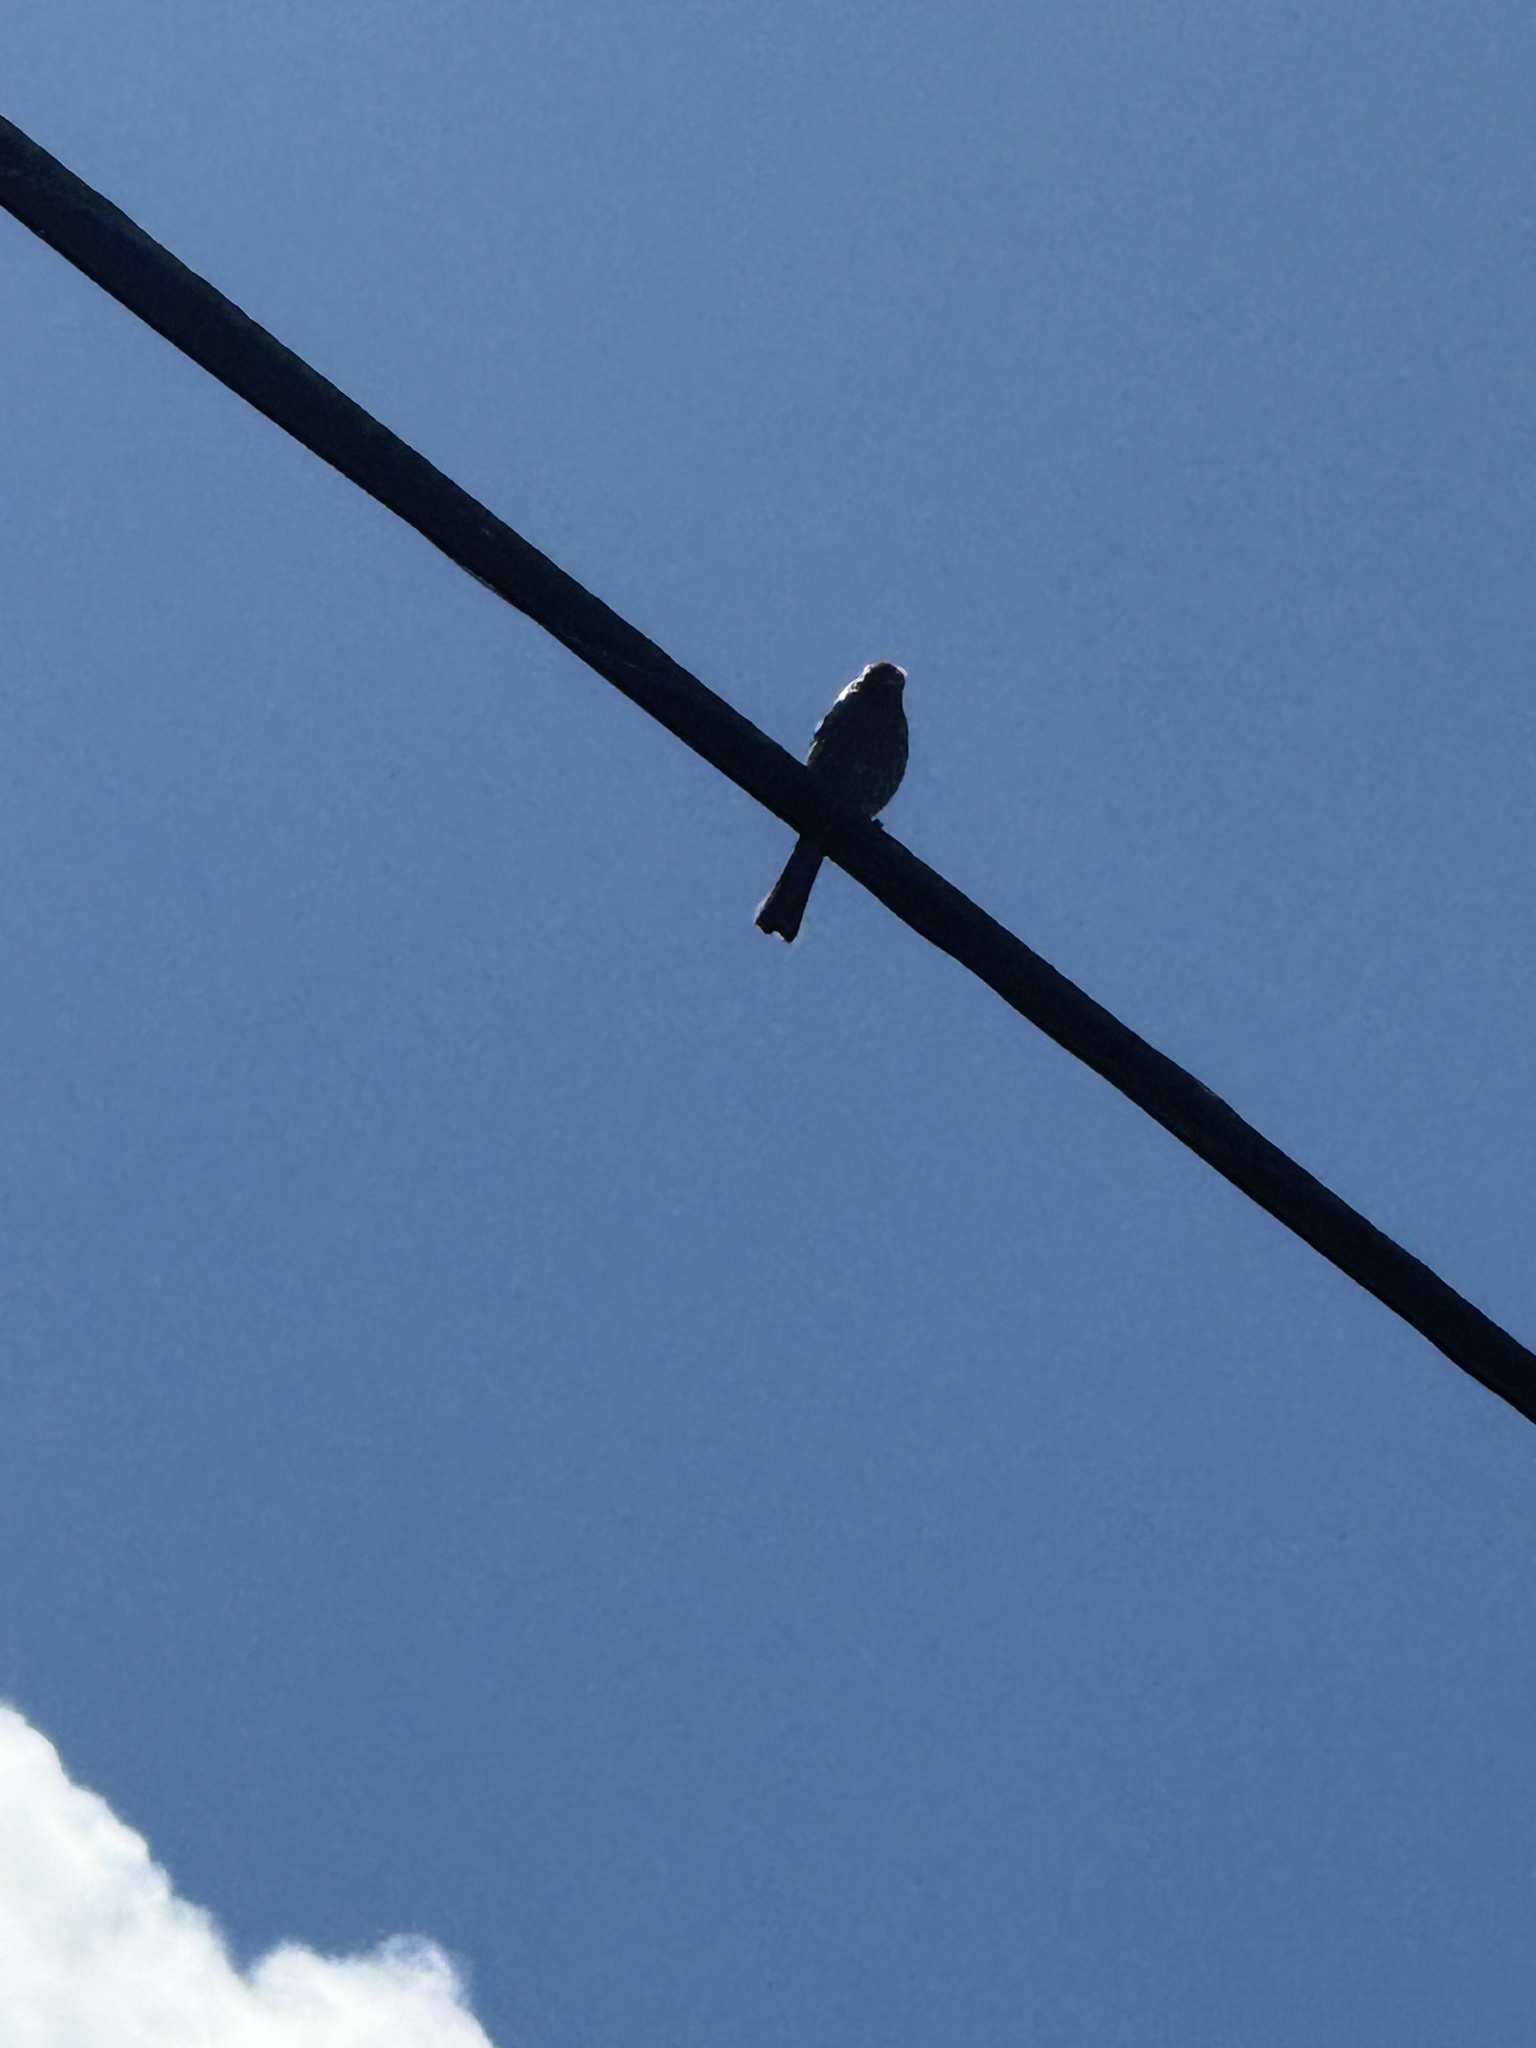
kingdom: Animalia
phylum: Chordata
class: Aves
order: Passeriformes
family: Fringillidae
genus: Haemorhous
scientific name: Haemorhous mexicanus
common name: House finch
